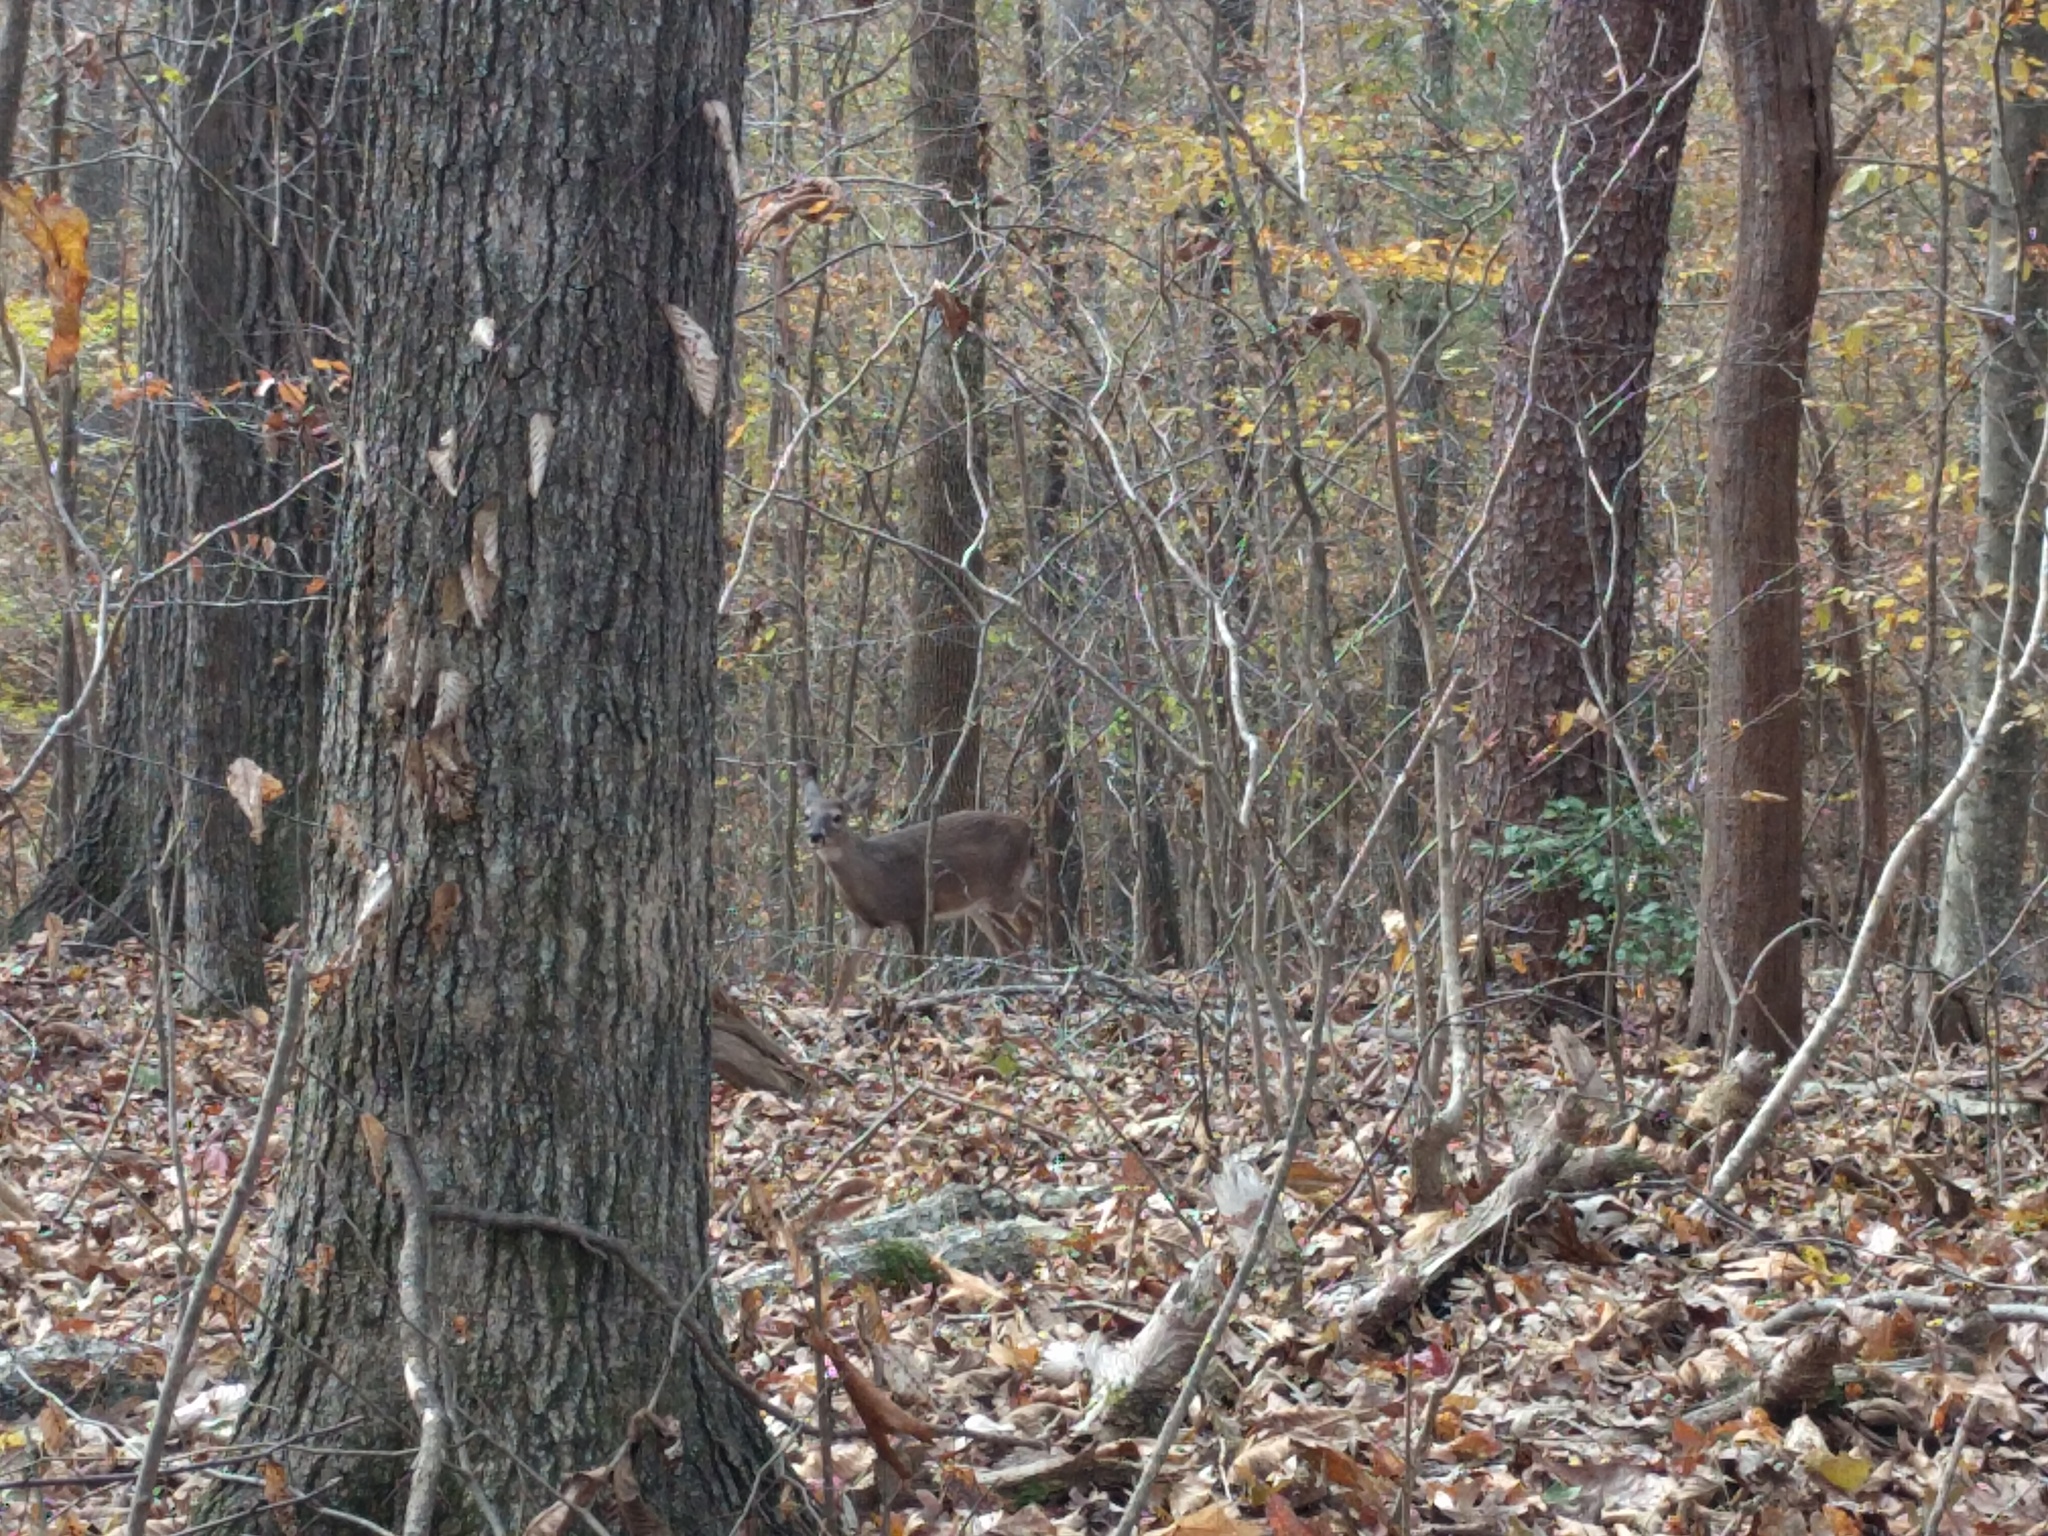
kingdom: Animalia
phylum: Chordata
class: Mammalia
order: Artiodactyla
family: Cervidae
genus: Odocoileus
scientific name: Odocoileus virginianus
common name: White-tailed deer
